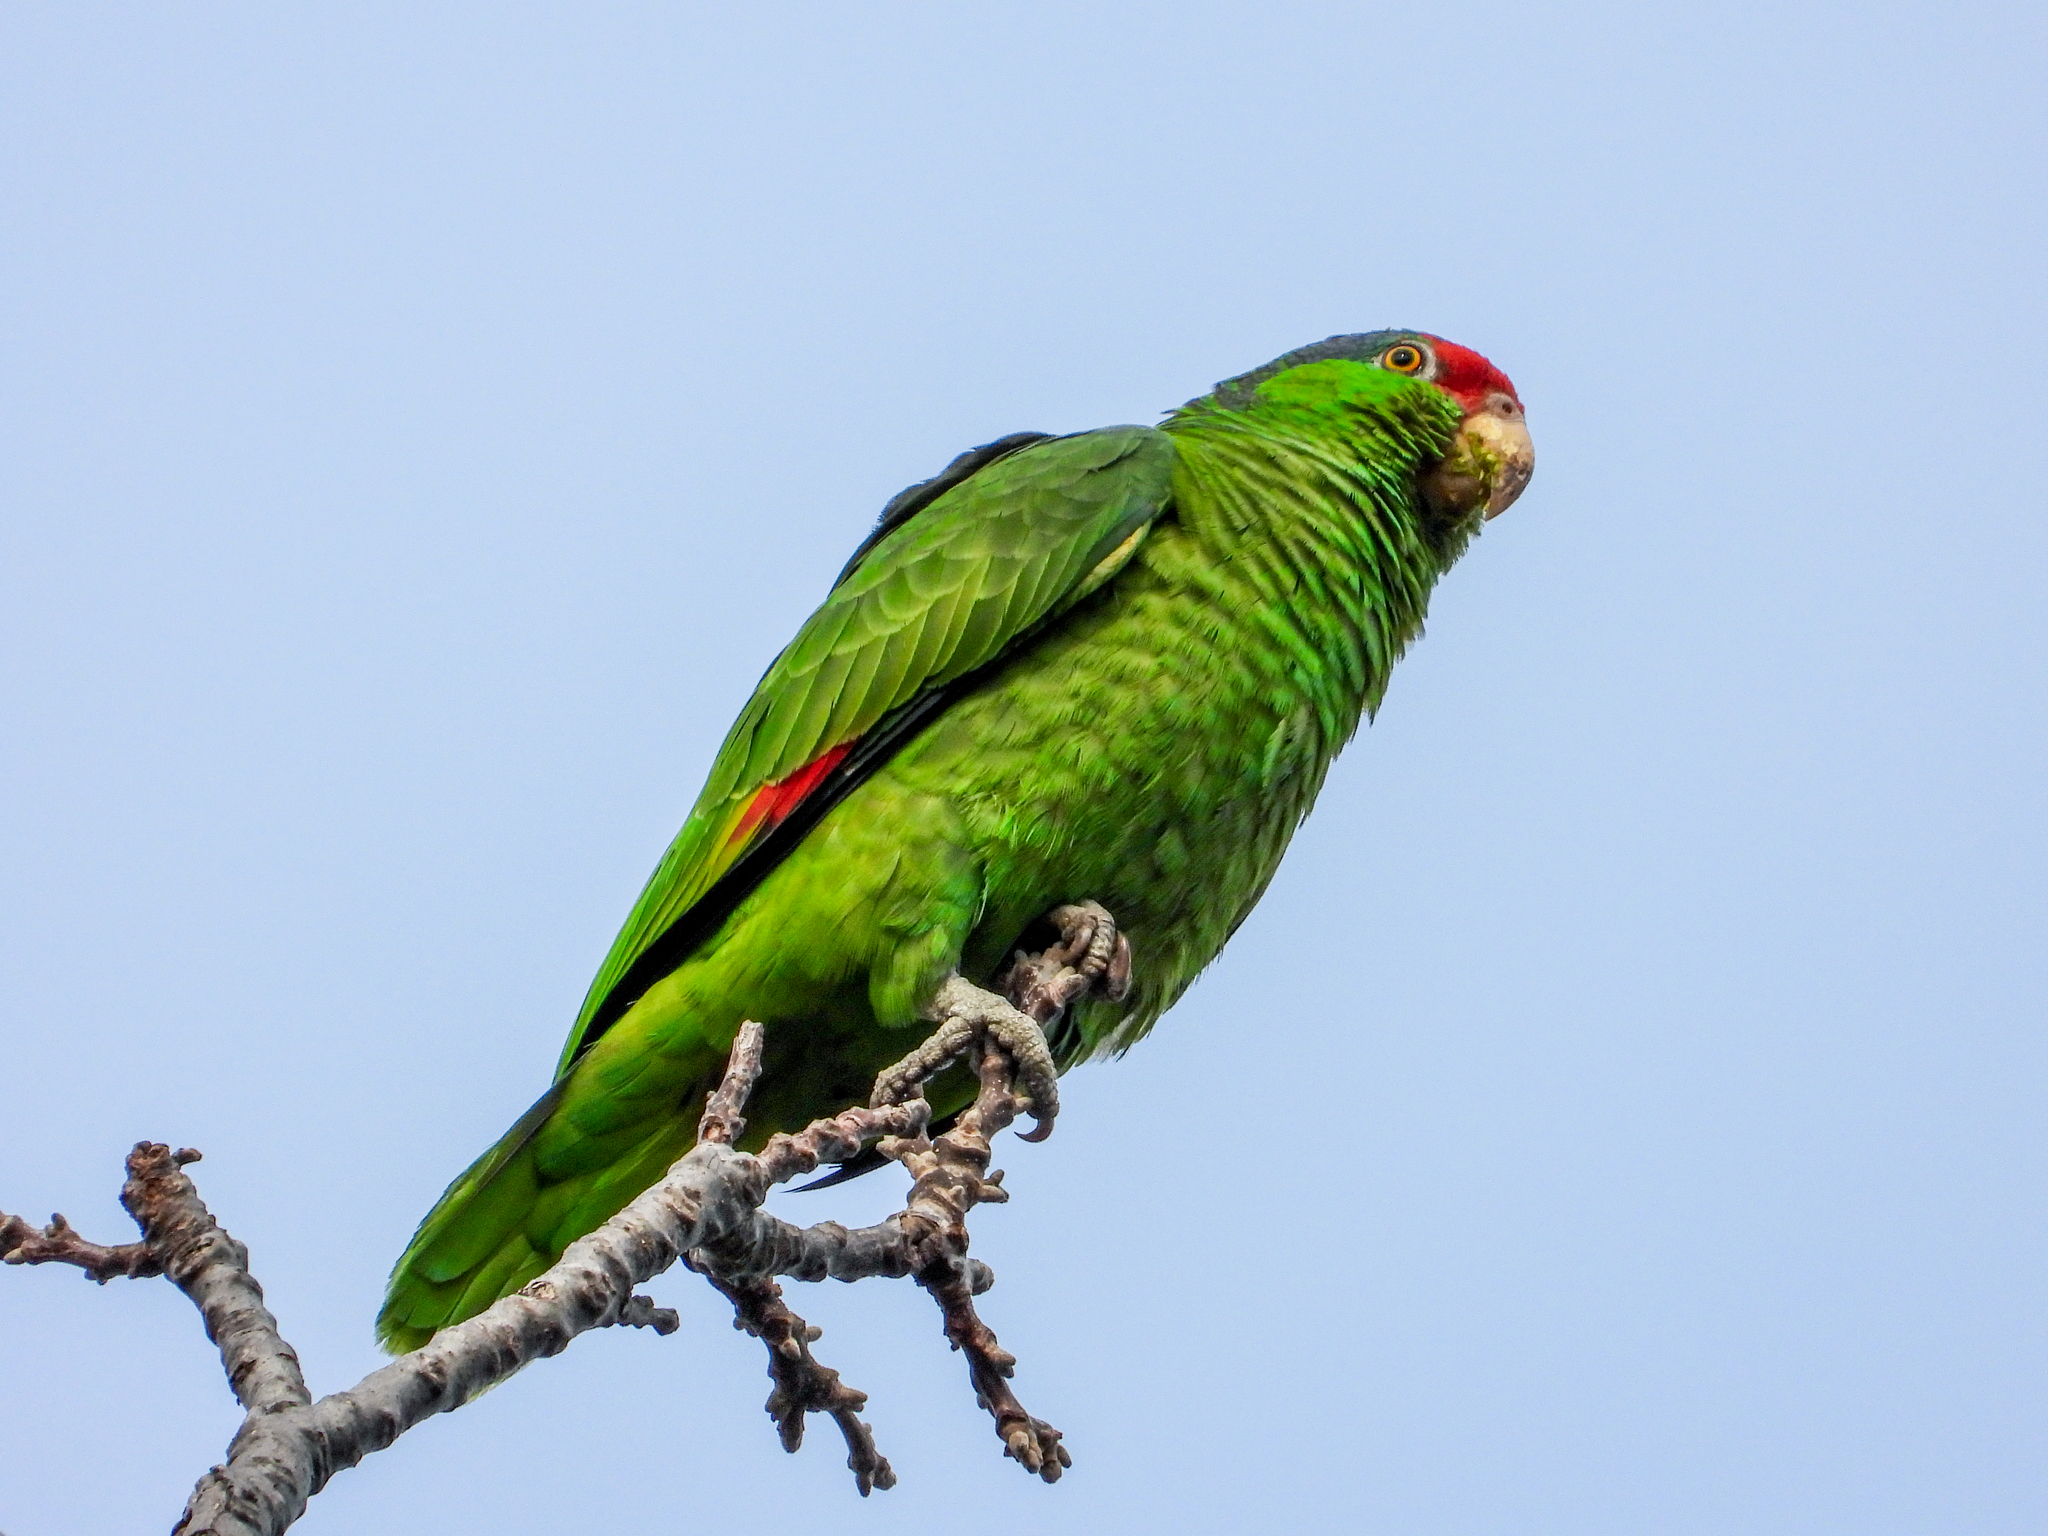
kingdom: Animalia
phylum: Chordata
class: Aves
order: Psittaciformes
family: Psittacidae
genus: Amazona
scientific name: Amazona viridigenalis
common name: Red-crowned amazon
